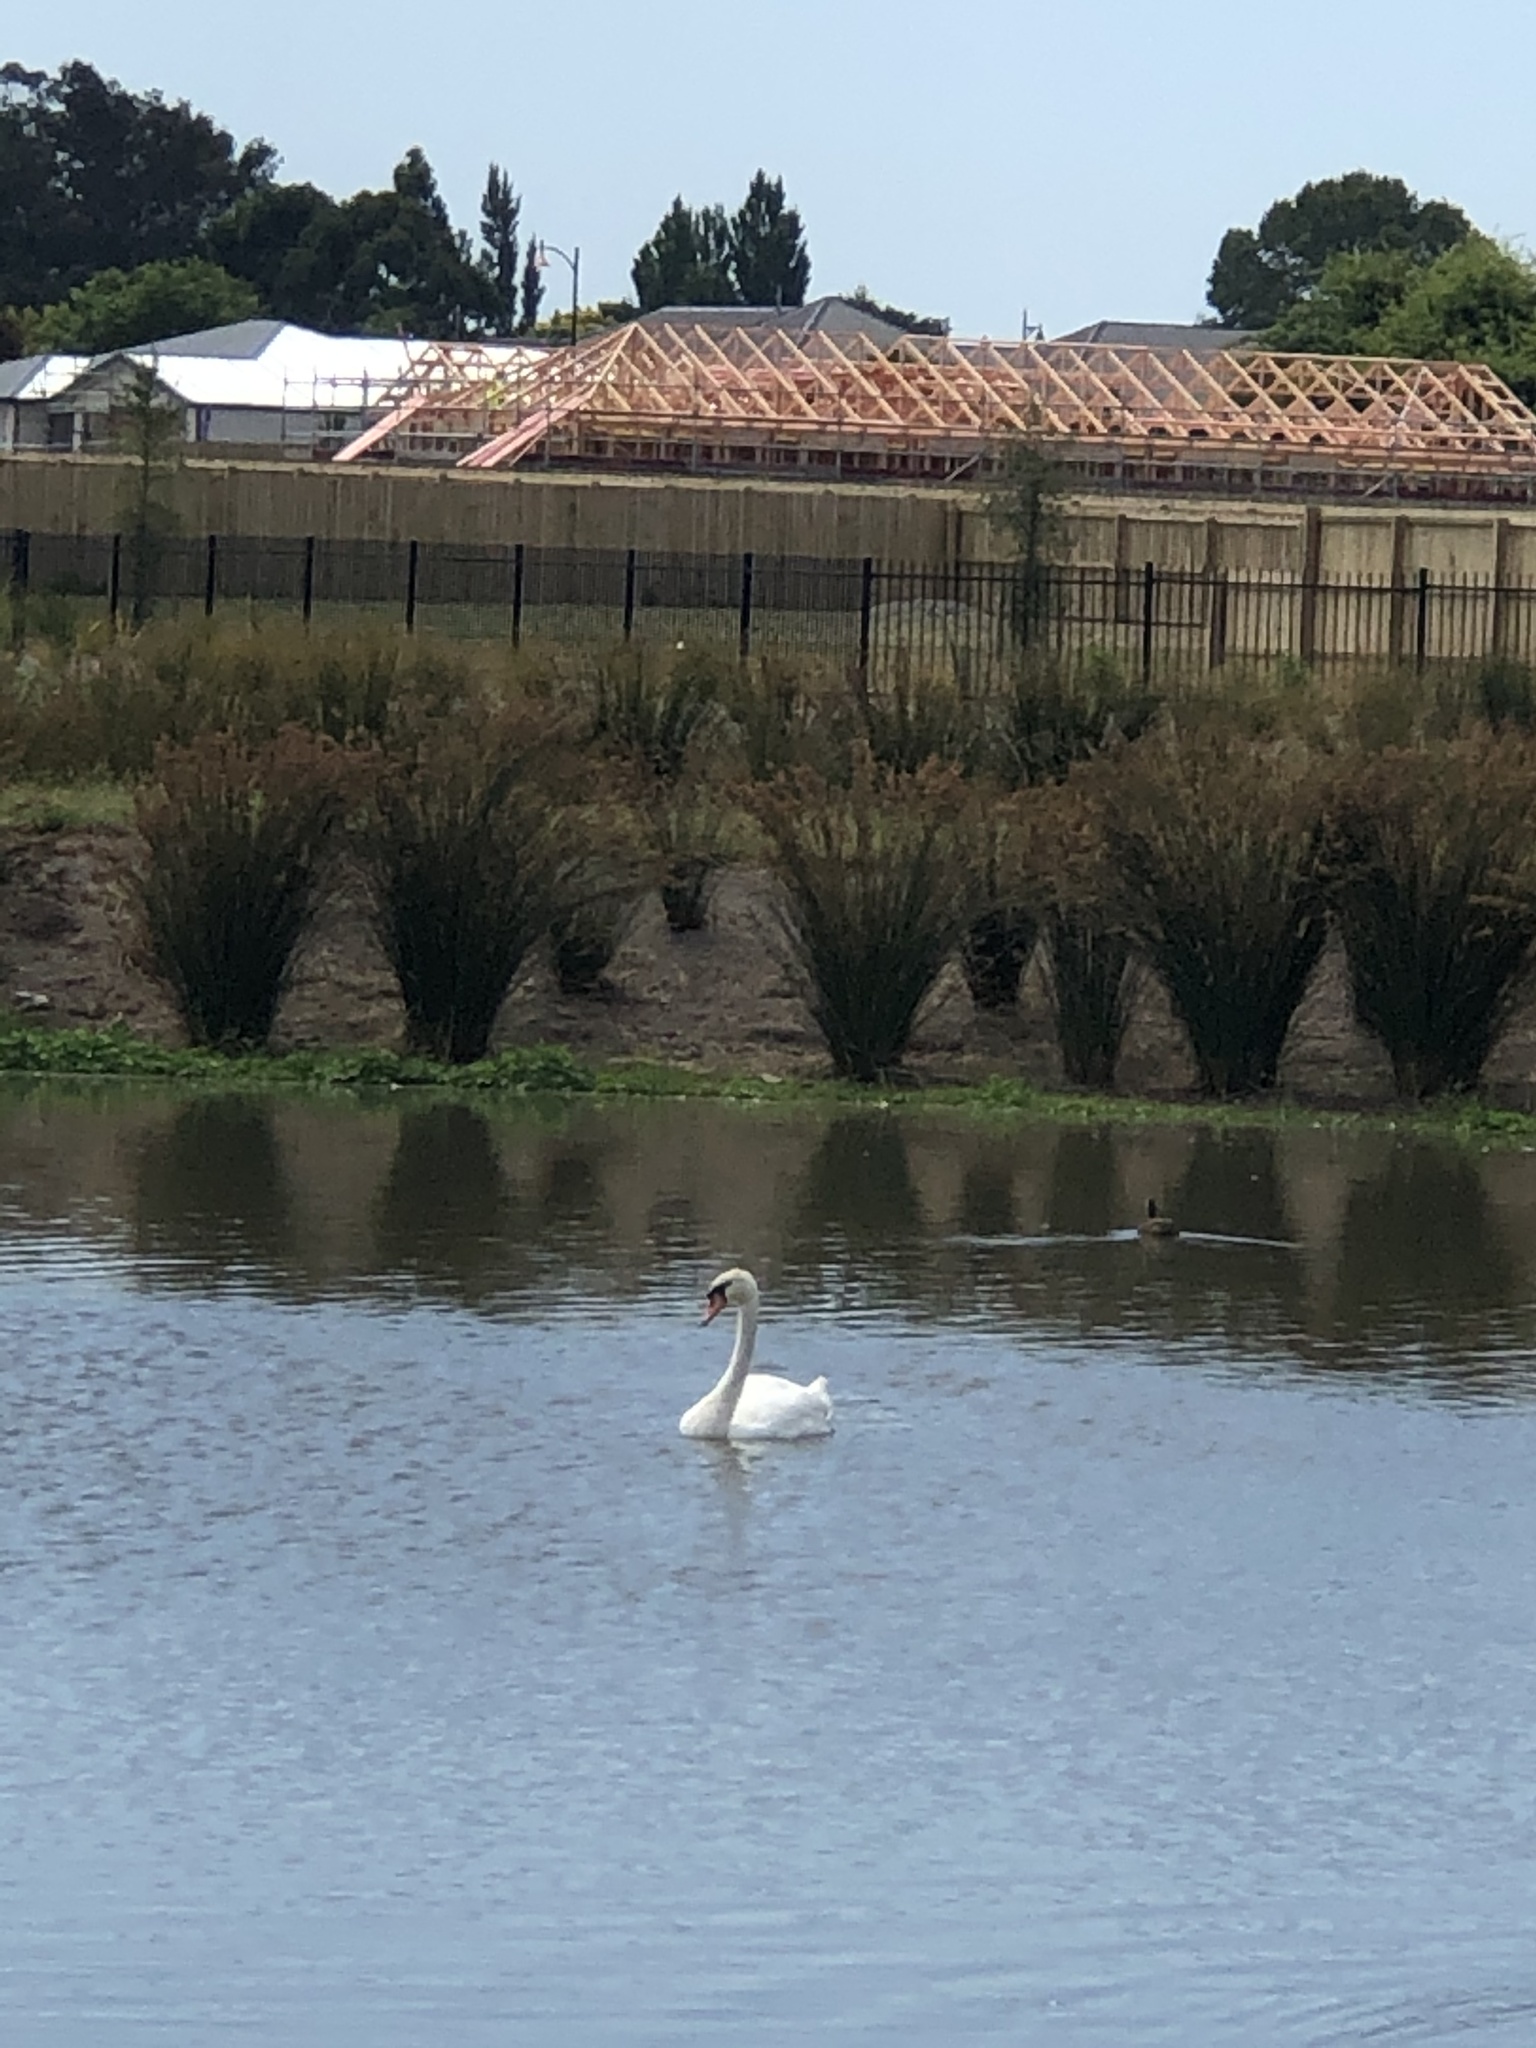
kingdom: Animalia
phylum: Chordata
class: Aves
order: Anseriformes
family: Anatidae
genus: Cygnus
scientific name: Cygnus olor
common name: Mute swan
